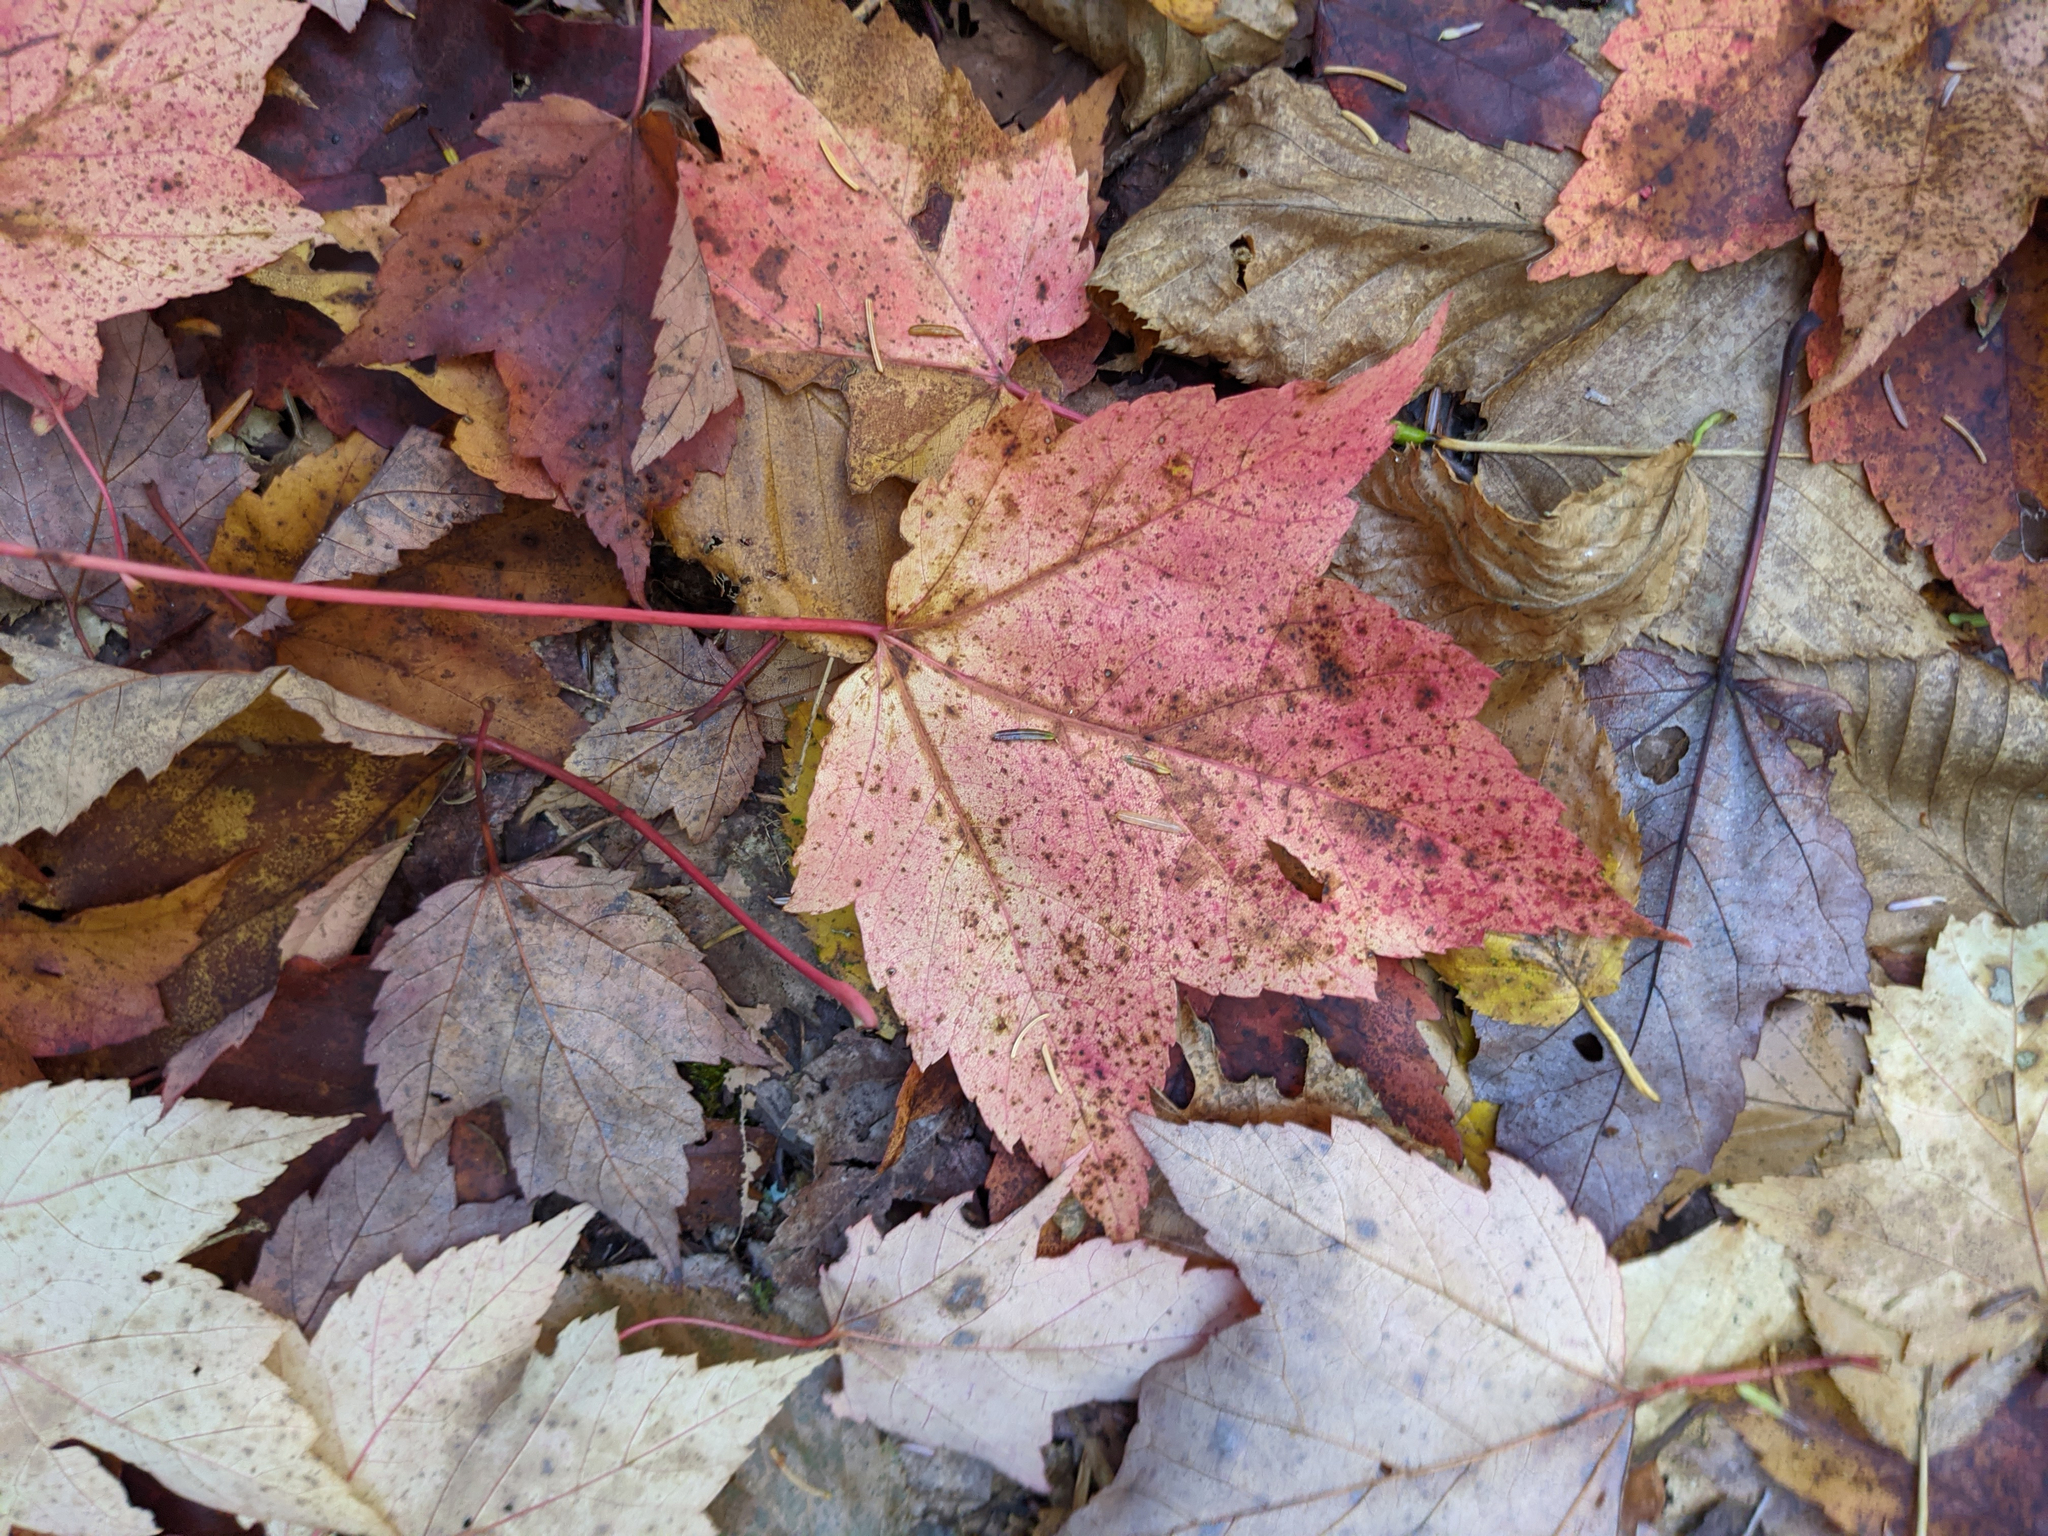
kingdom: Plantae
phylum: Tracheophyta
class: Magnoliopsida
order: Sapindales
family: Sapindaceae
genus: Acer
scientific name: Acer rubrum
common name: Red maple
